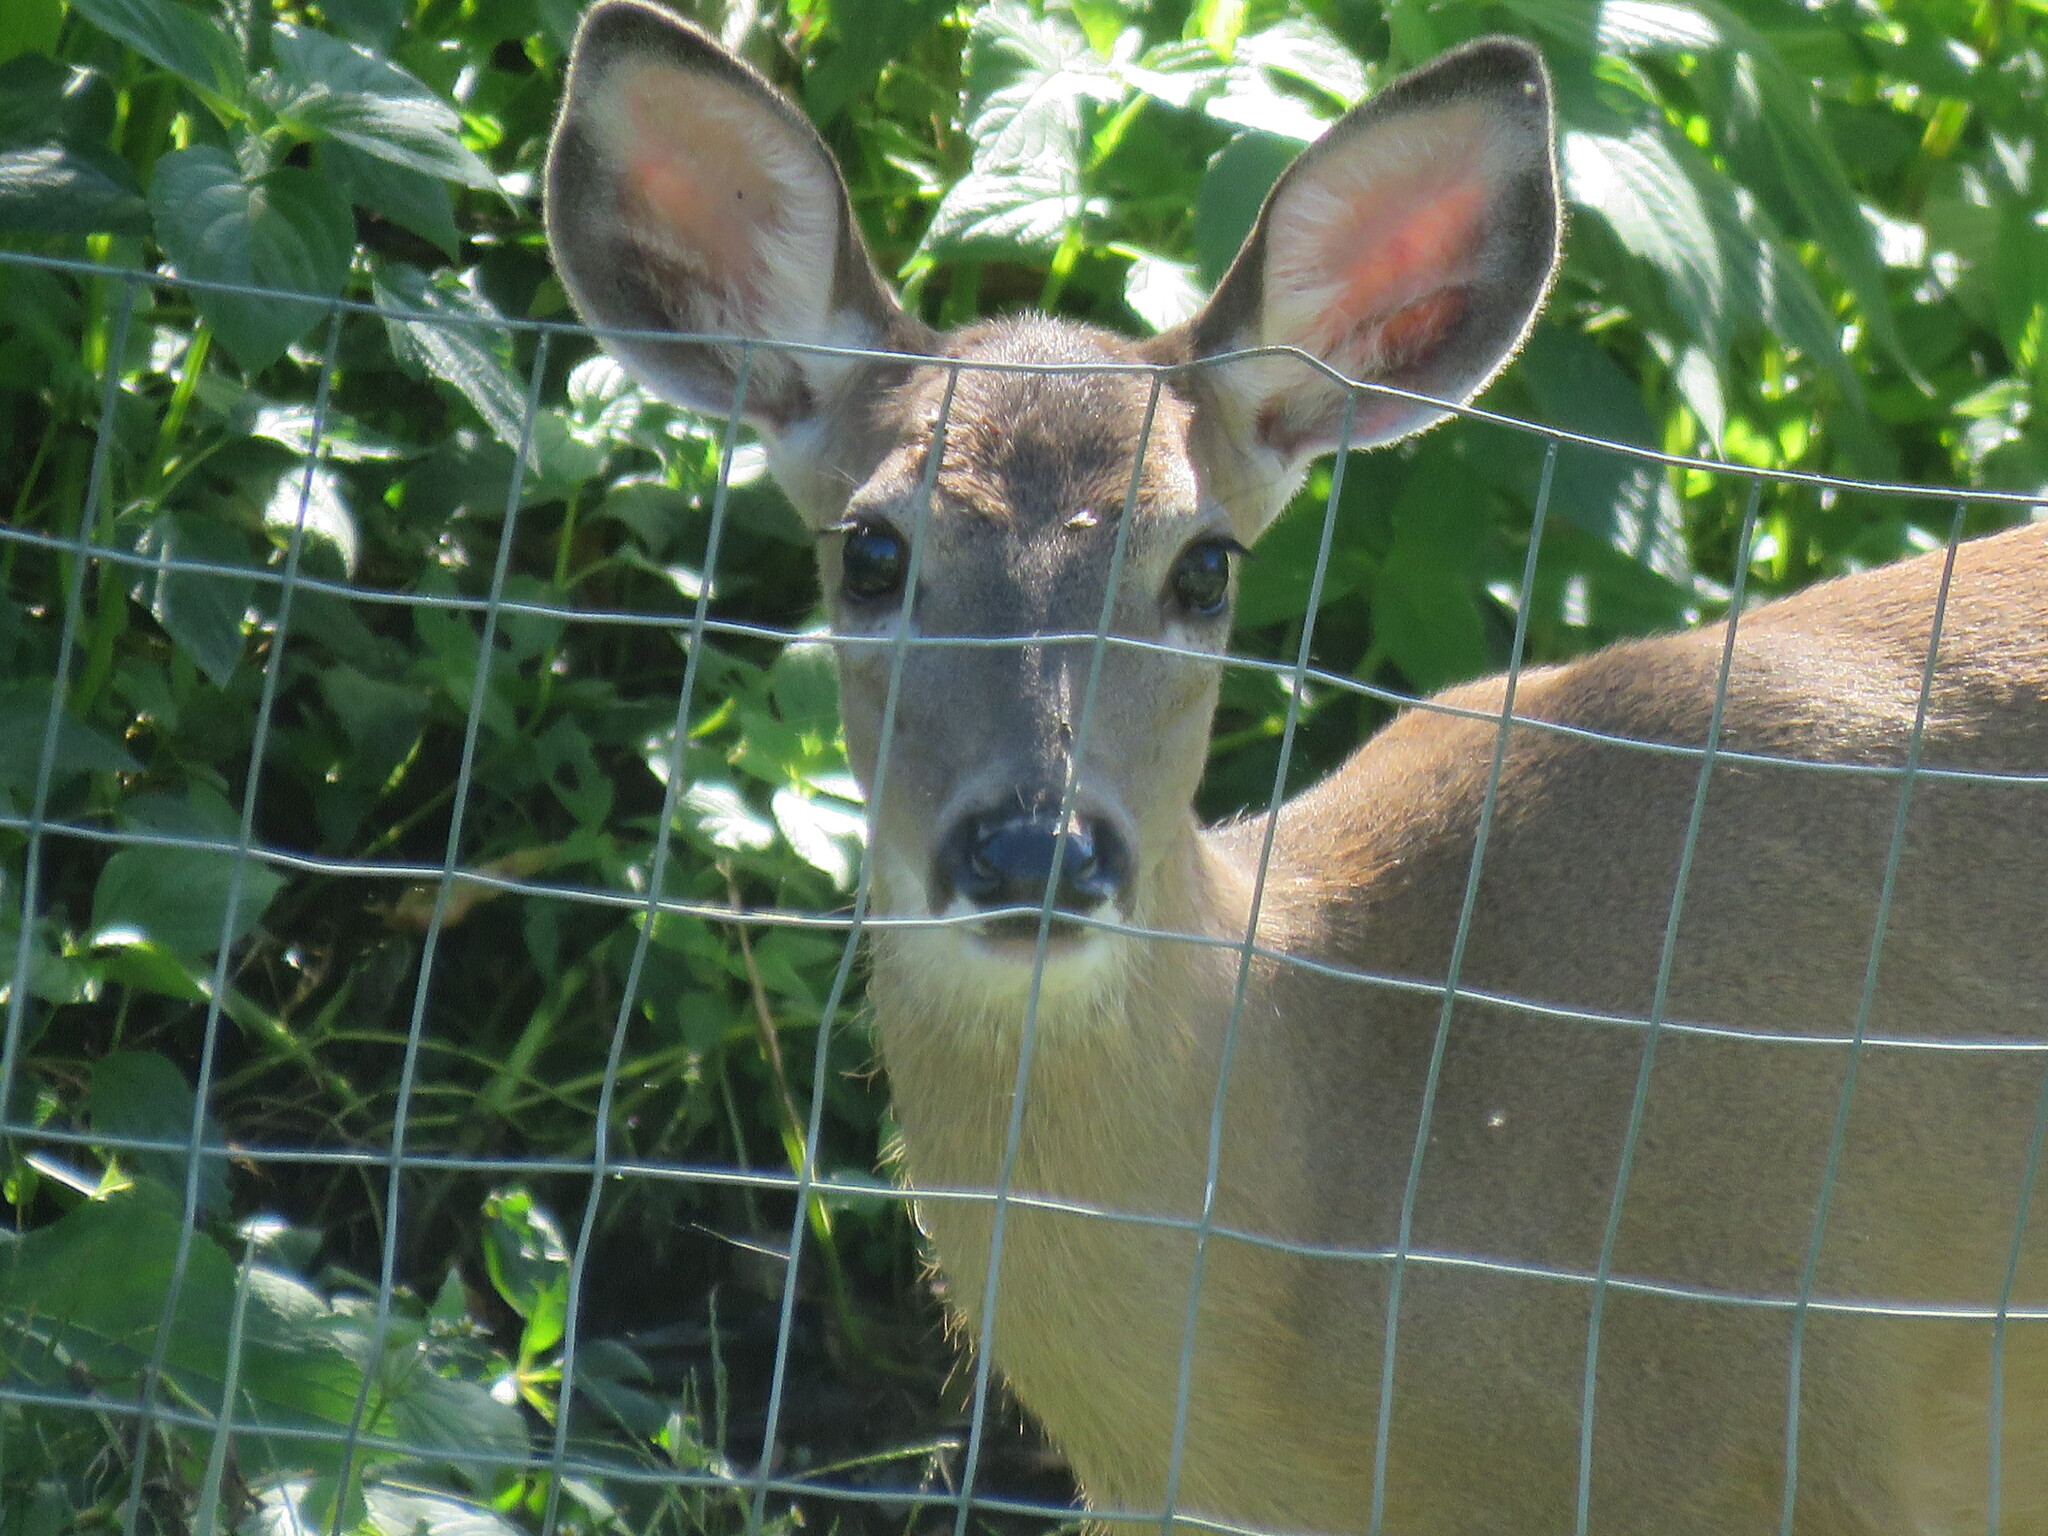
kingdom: Animalia
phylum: Chordata
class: Mammalia
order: Artiodactyla
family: Cervidae
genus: Odocoileus
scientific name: Odocoileus virginianus
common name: White-tailed deer
